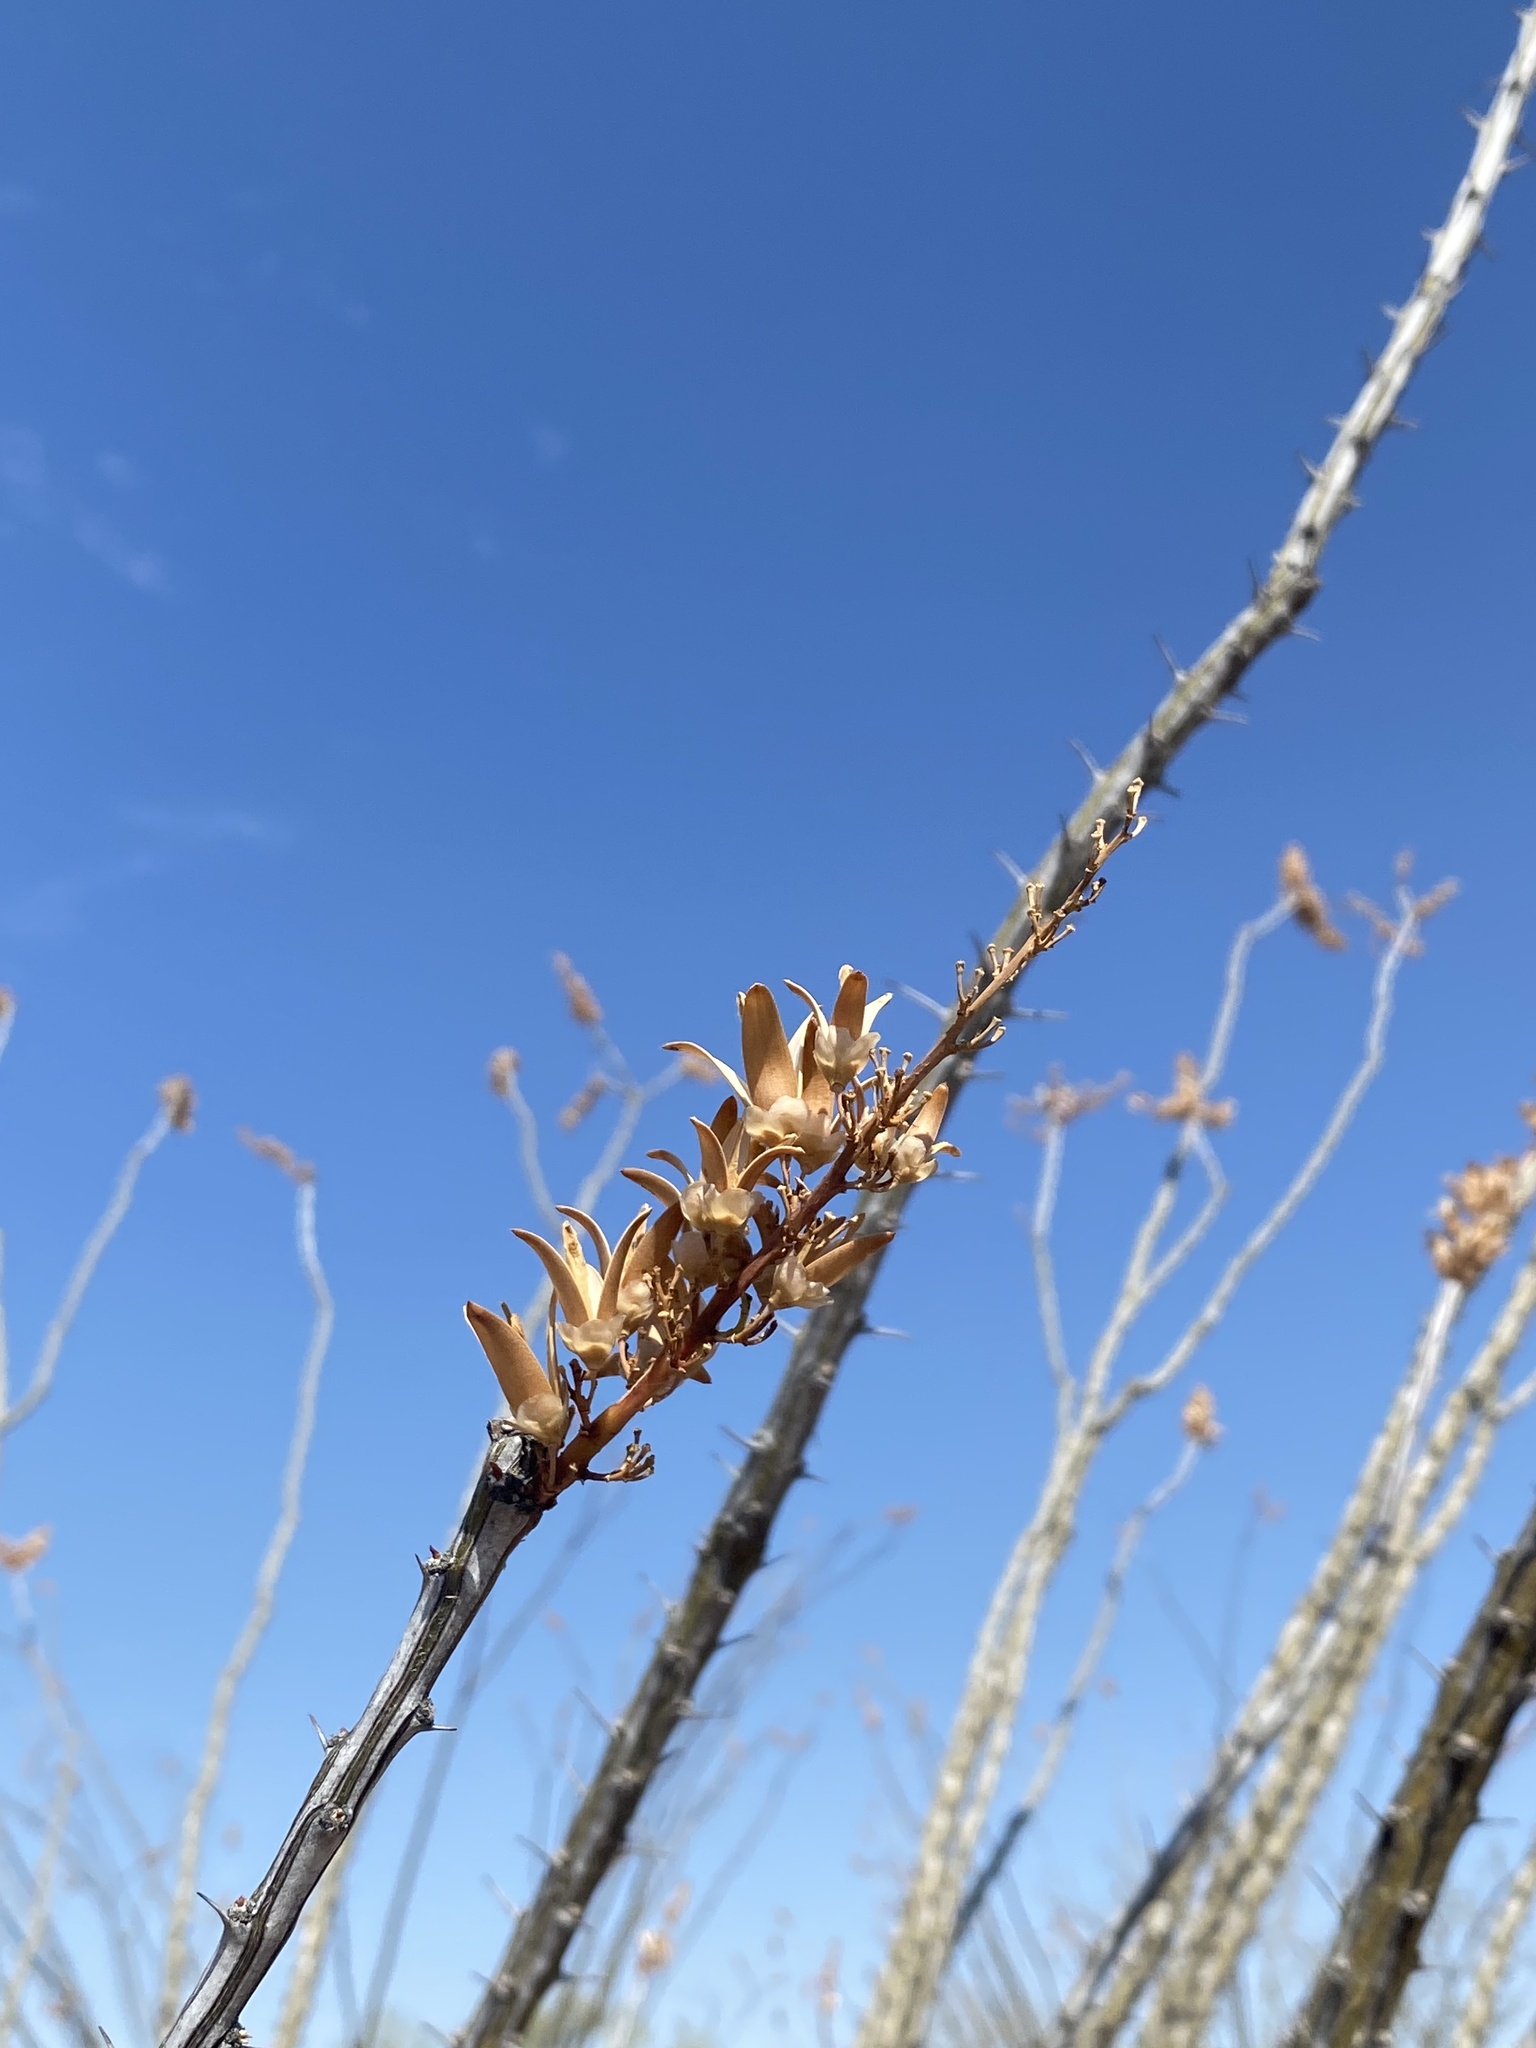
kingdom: Plantae
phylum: Tracheophyta
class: Magnoliopsida
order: Ericales
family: Fouquieriaceae
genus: Fouquieria
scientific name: Fouquieria splendens
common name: Vine-cactus
